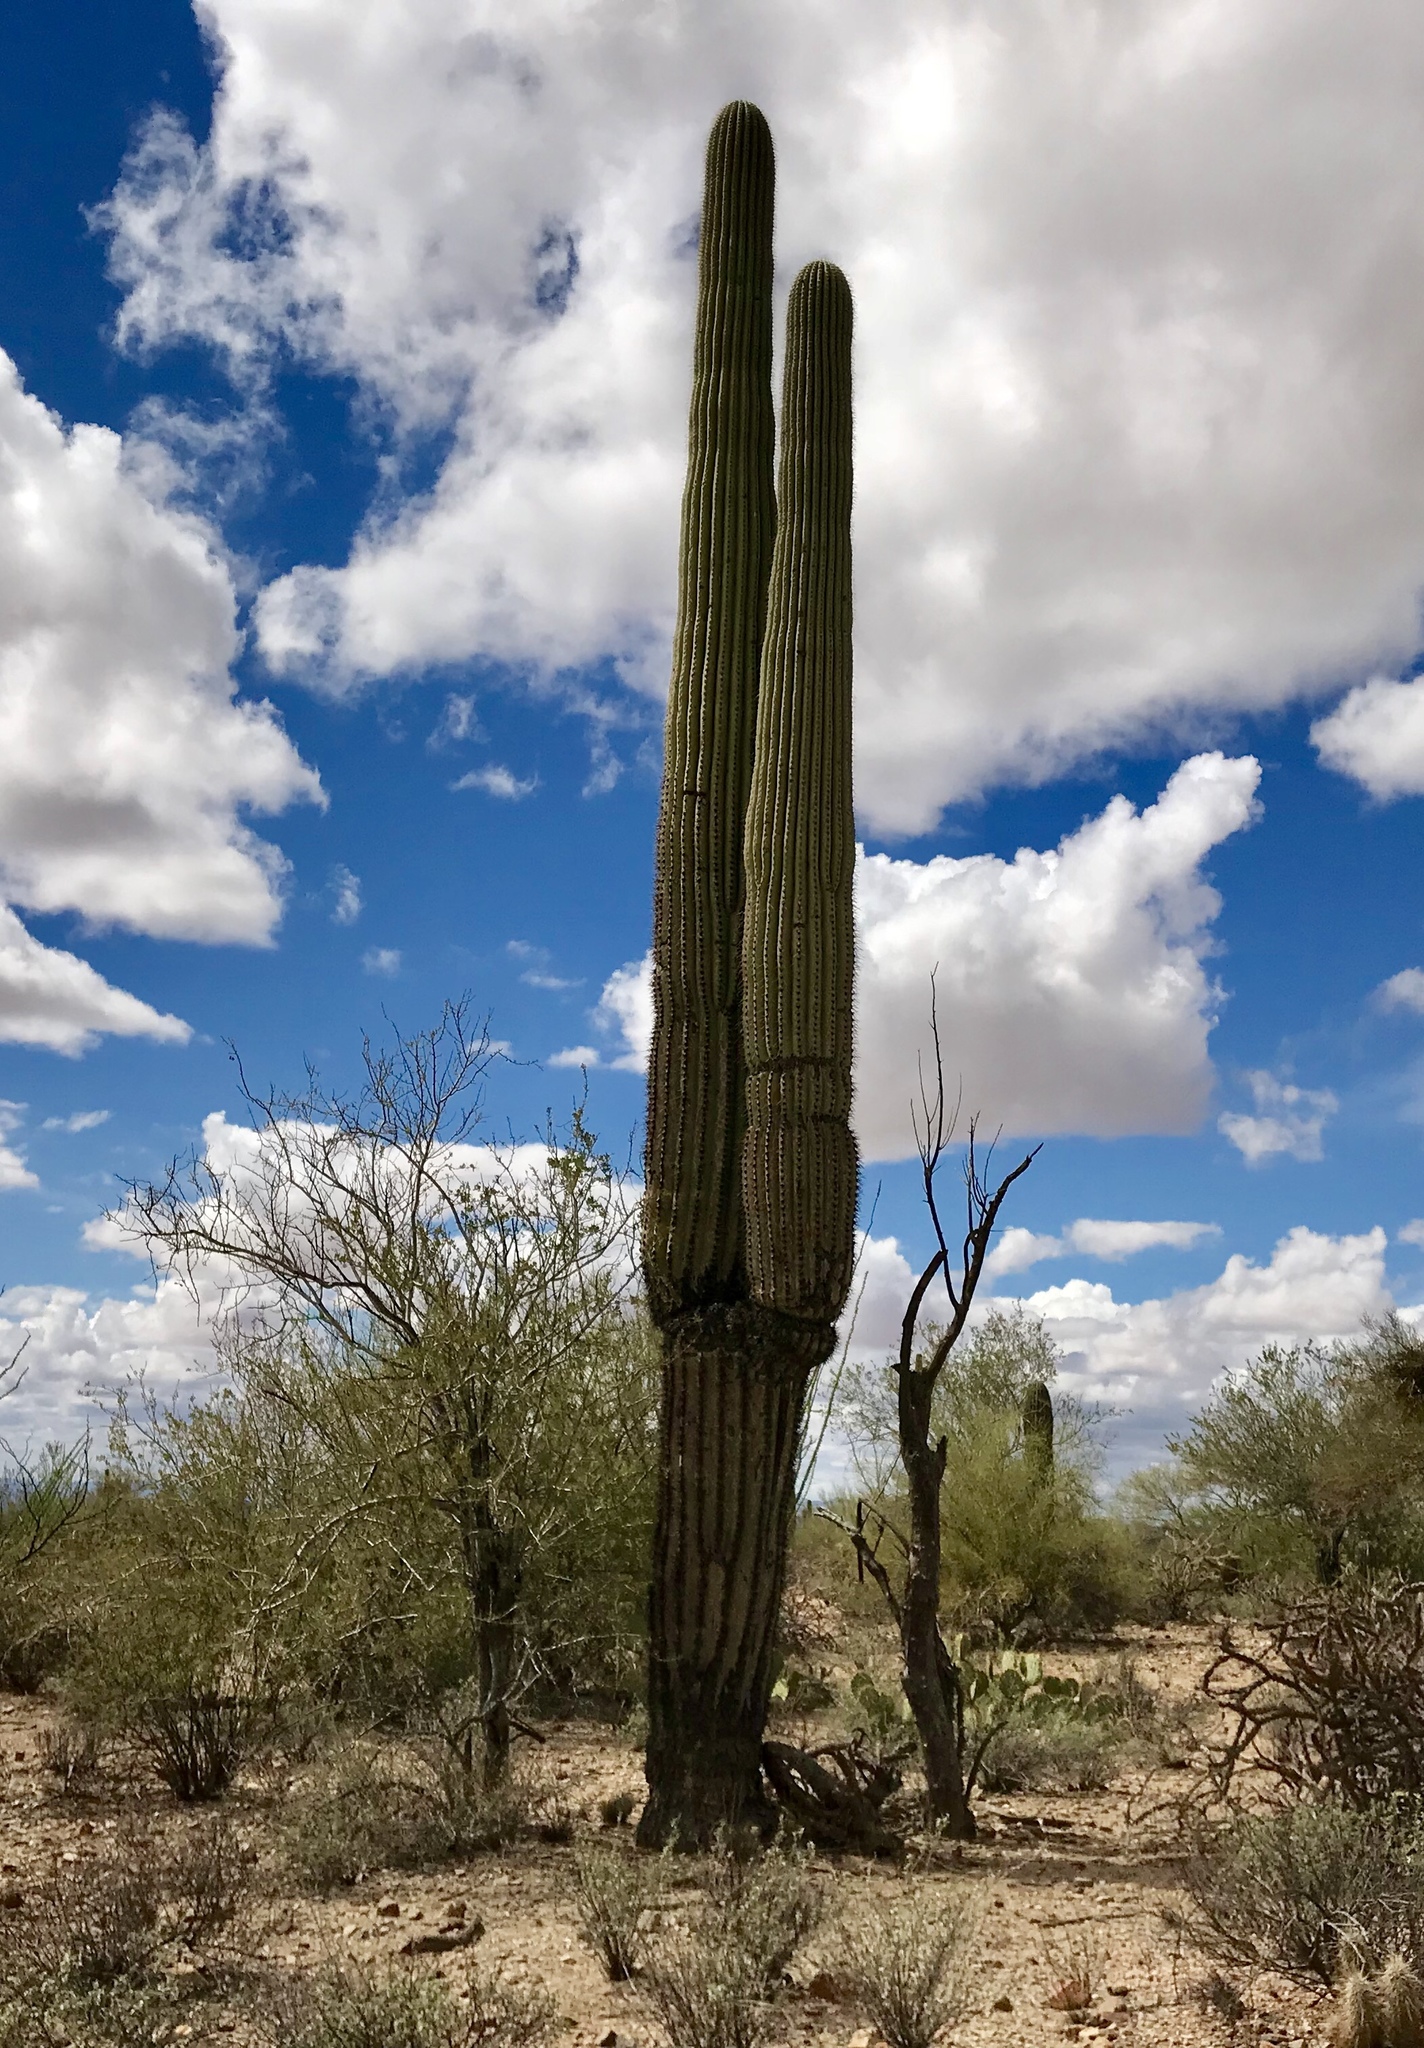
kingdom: Plantae
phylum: Tracheophyta
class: Magnoliopsida
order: Caryophyllales
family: Cactaceae
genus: Carnegiea
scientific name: Carnegiea gigantea
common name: Saguaro
